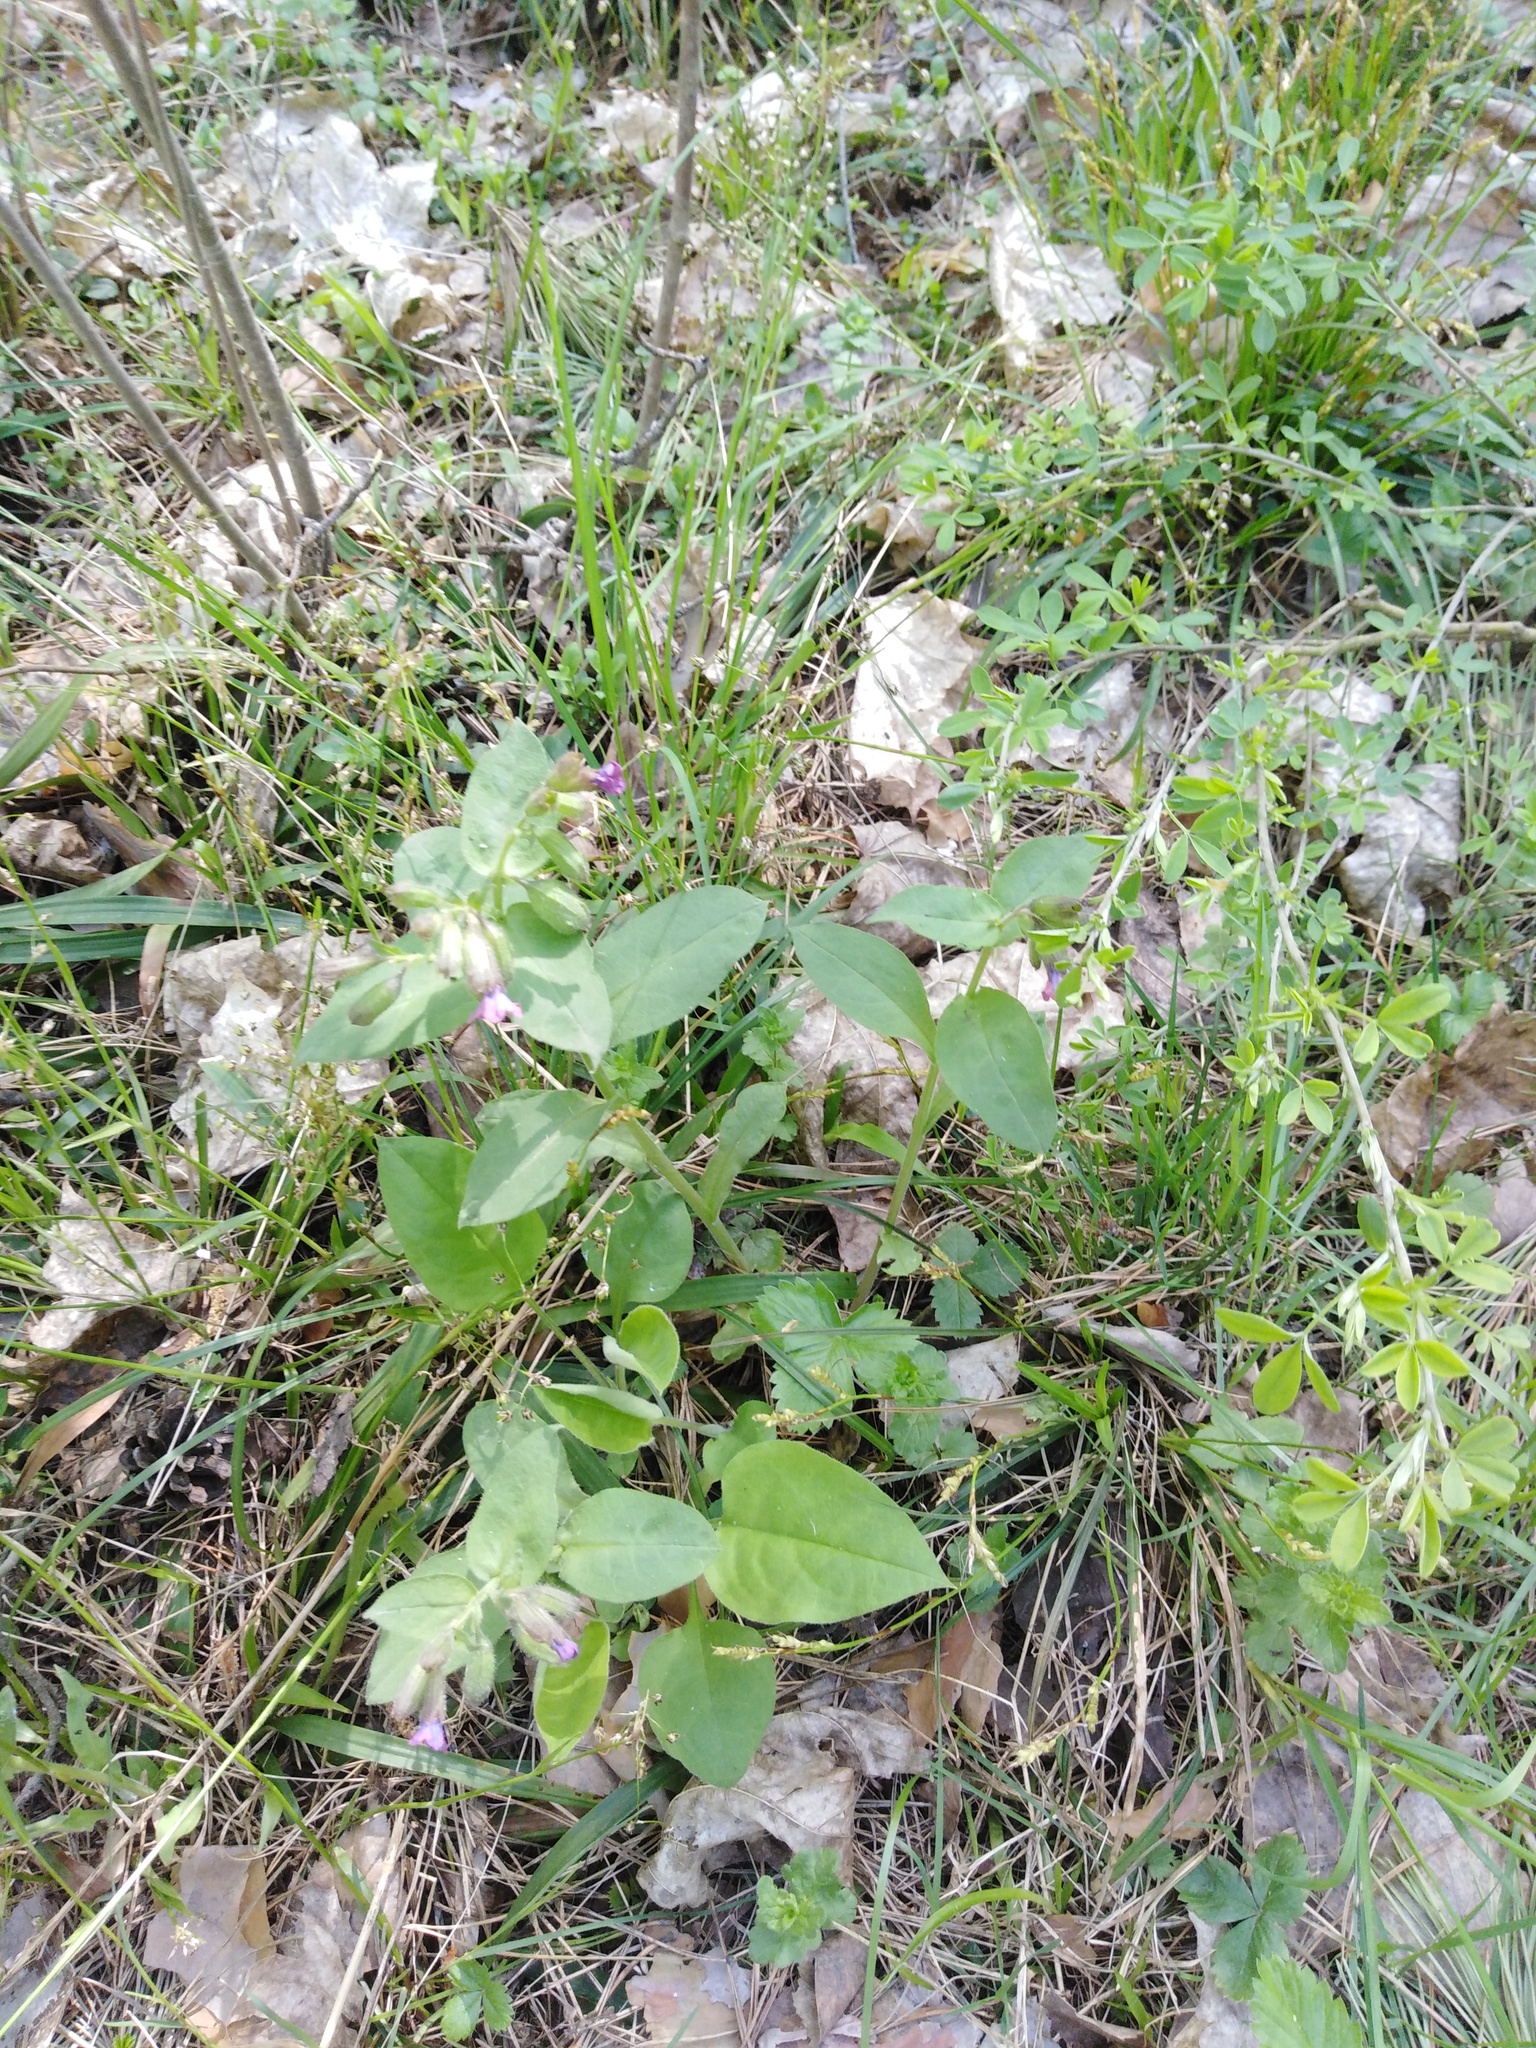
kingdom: Plantae
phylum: Tracheophyta
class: Magnoliopsida
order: Boraginales
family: Boraginaceae
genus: Pulmonaria
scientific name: Pulmonaria obscura
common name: Suffolk lungwort
